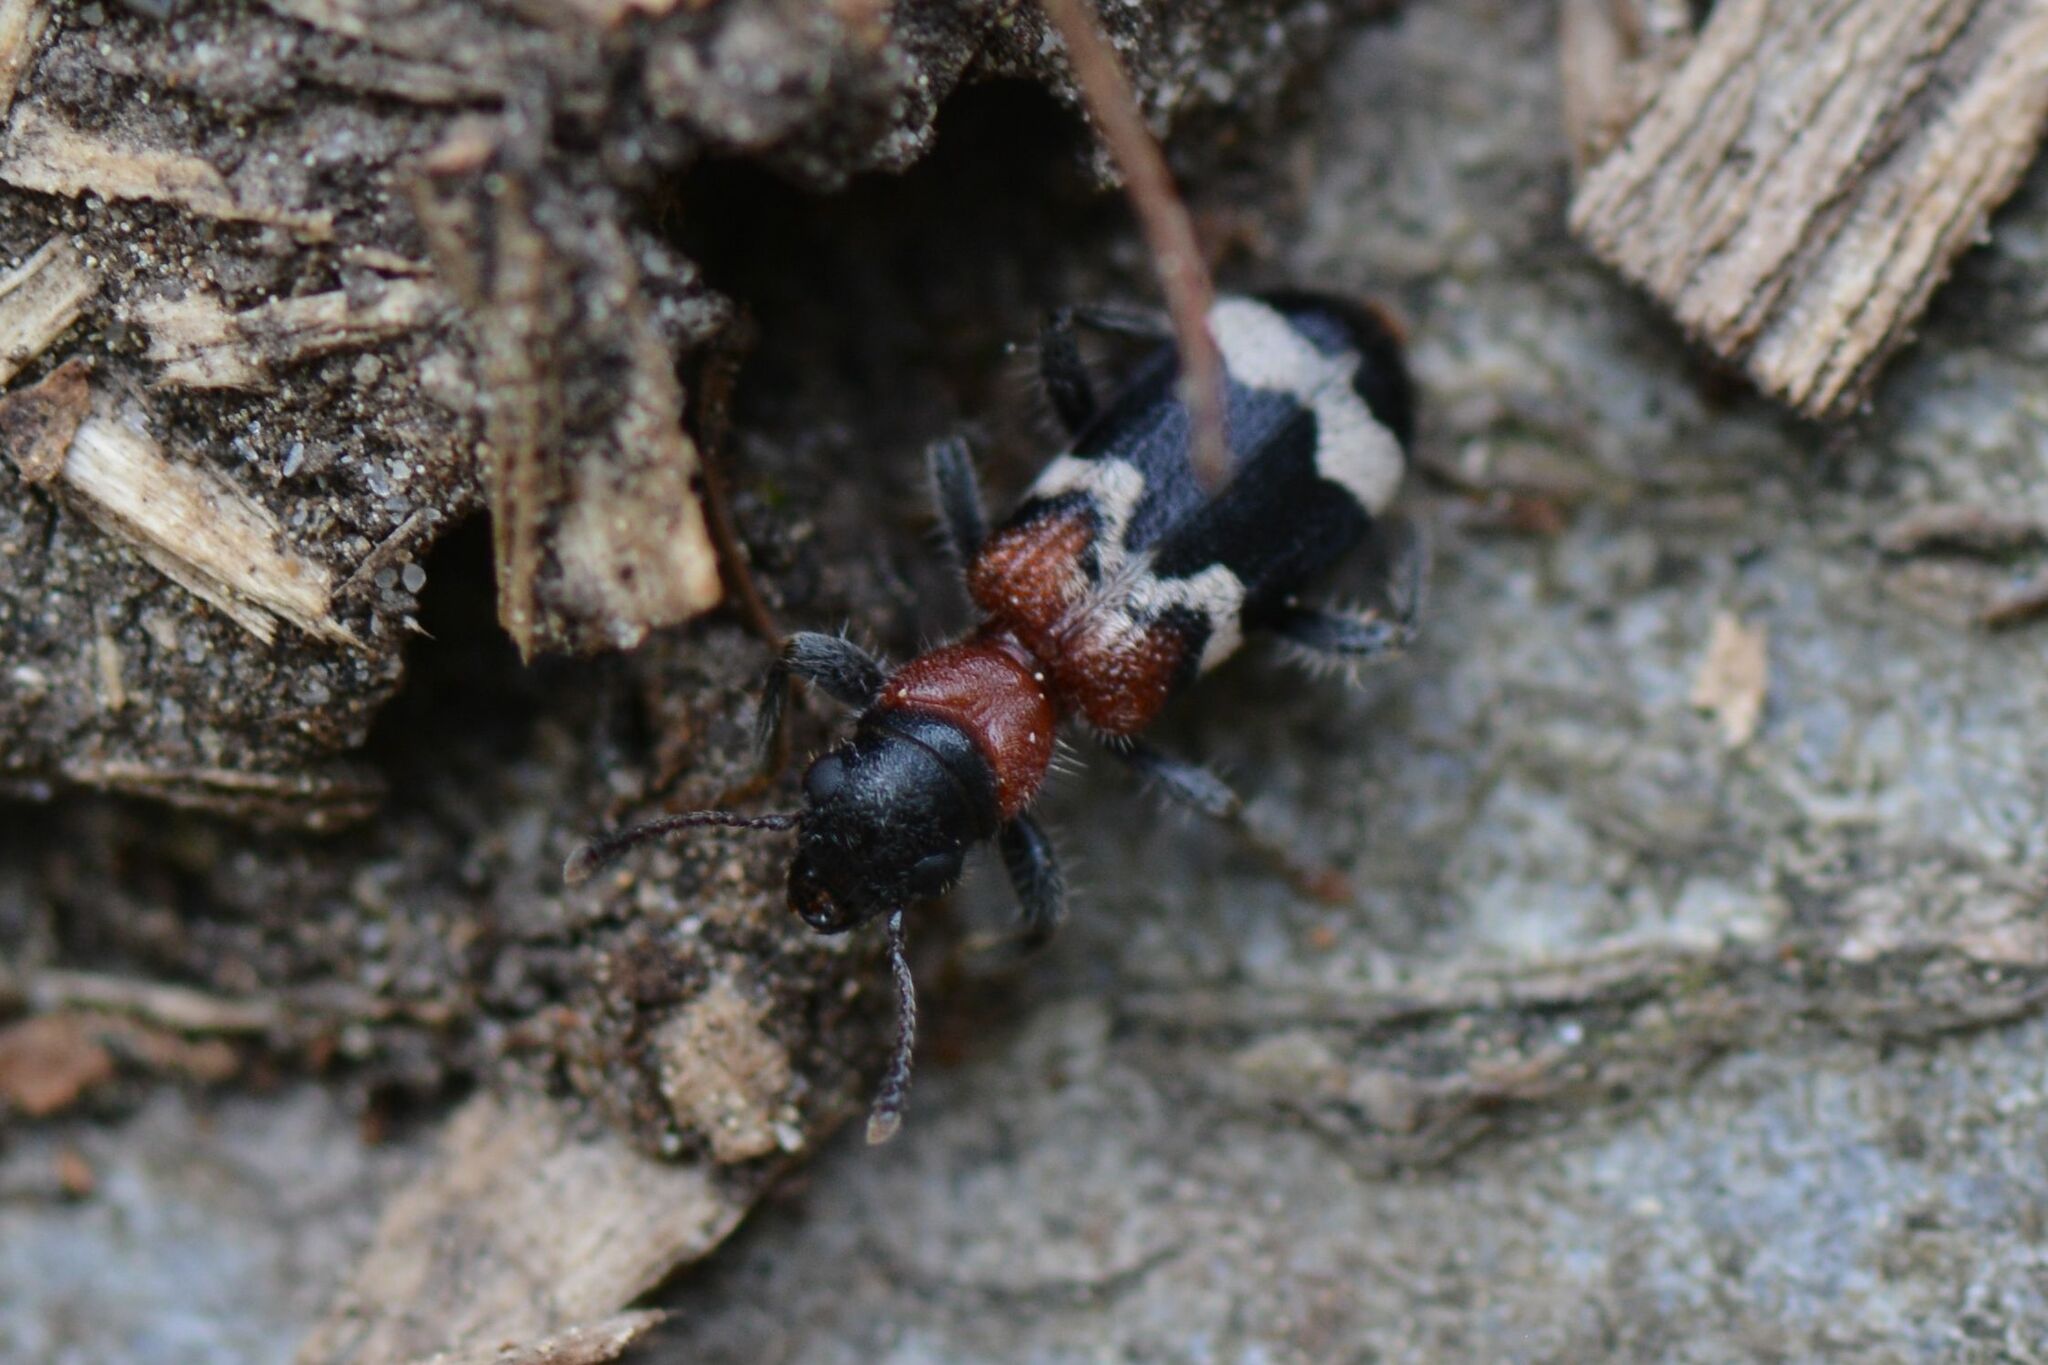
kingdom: Animalia
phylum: Arthropoda
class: Insecta
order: Coleoptera
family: Cleridae
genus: Thanasimus
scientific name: Thanasimus formicarius
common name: Ant beetle
